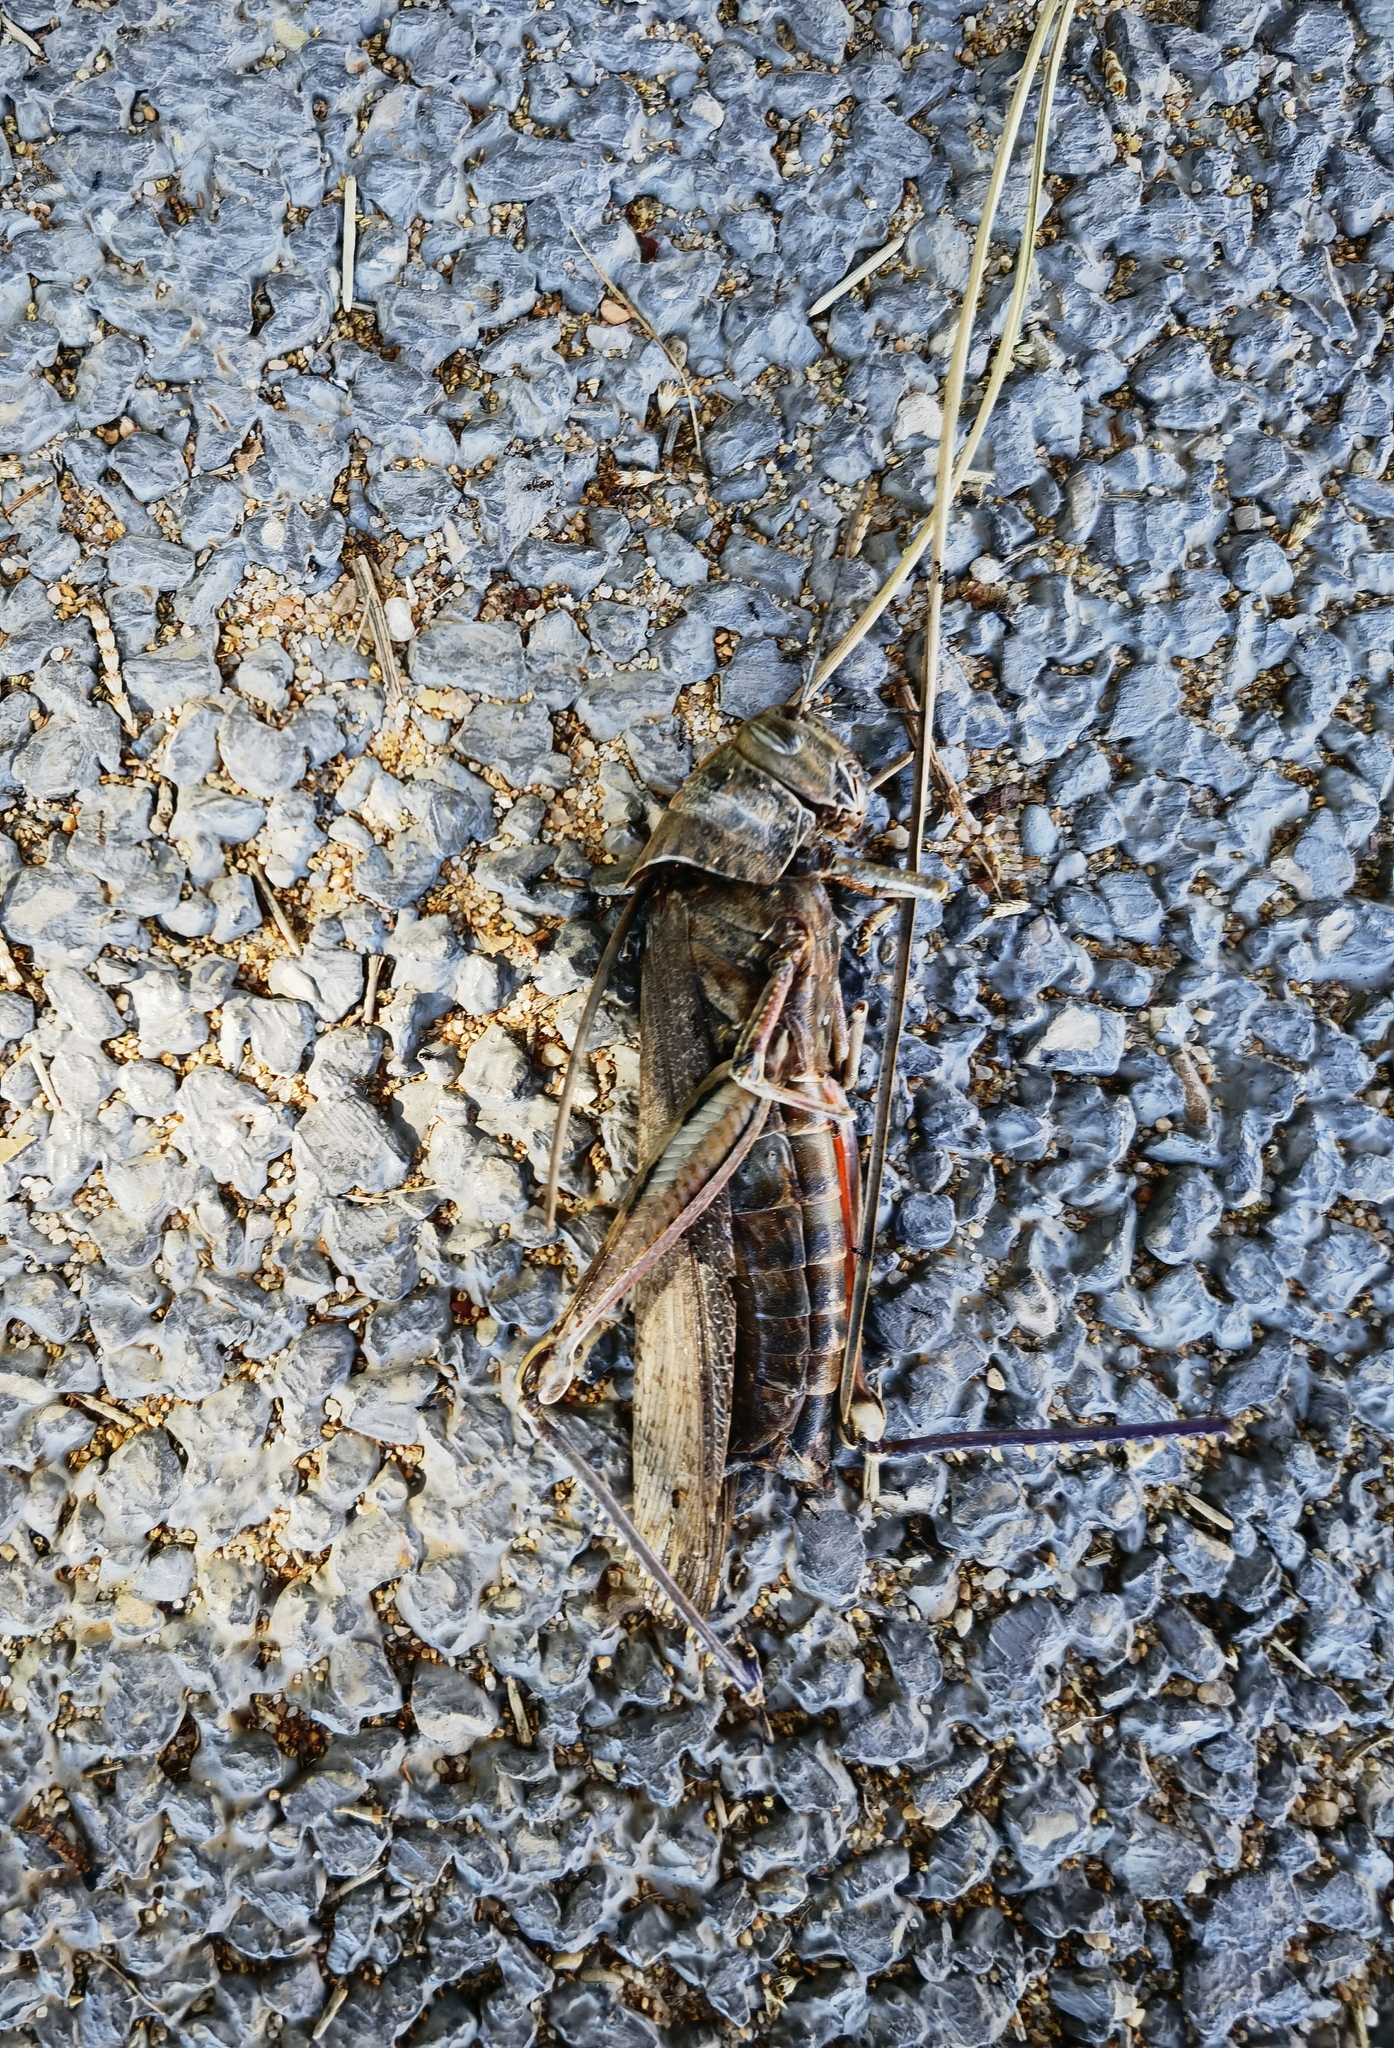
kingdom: Animalia
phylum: Arthropoda
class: Insecta
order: Orthoptera
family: Acrididae
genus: Anacridium
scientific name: Anacridium aegyptium
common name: Egyptian grasshopper
